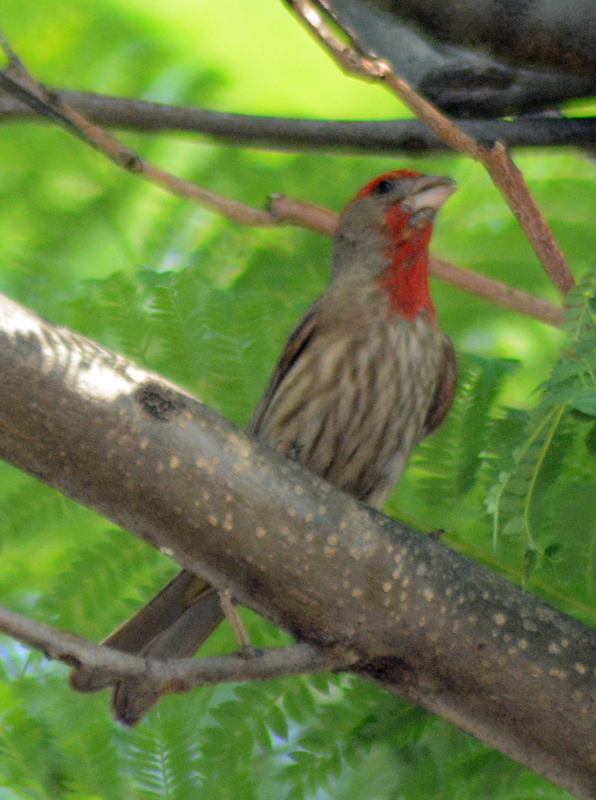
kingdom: Animalia
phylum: Chordata
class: Aves
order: Passeriformes
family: Fringillidae
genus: Haemorhous
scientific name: Haemorhous mexicanus
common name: House finch
